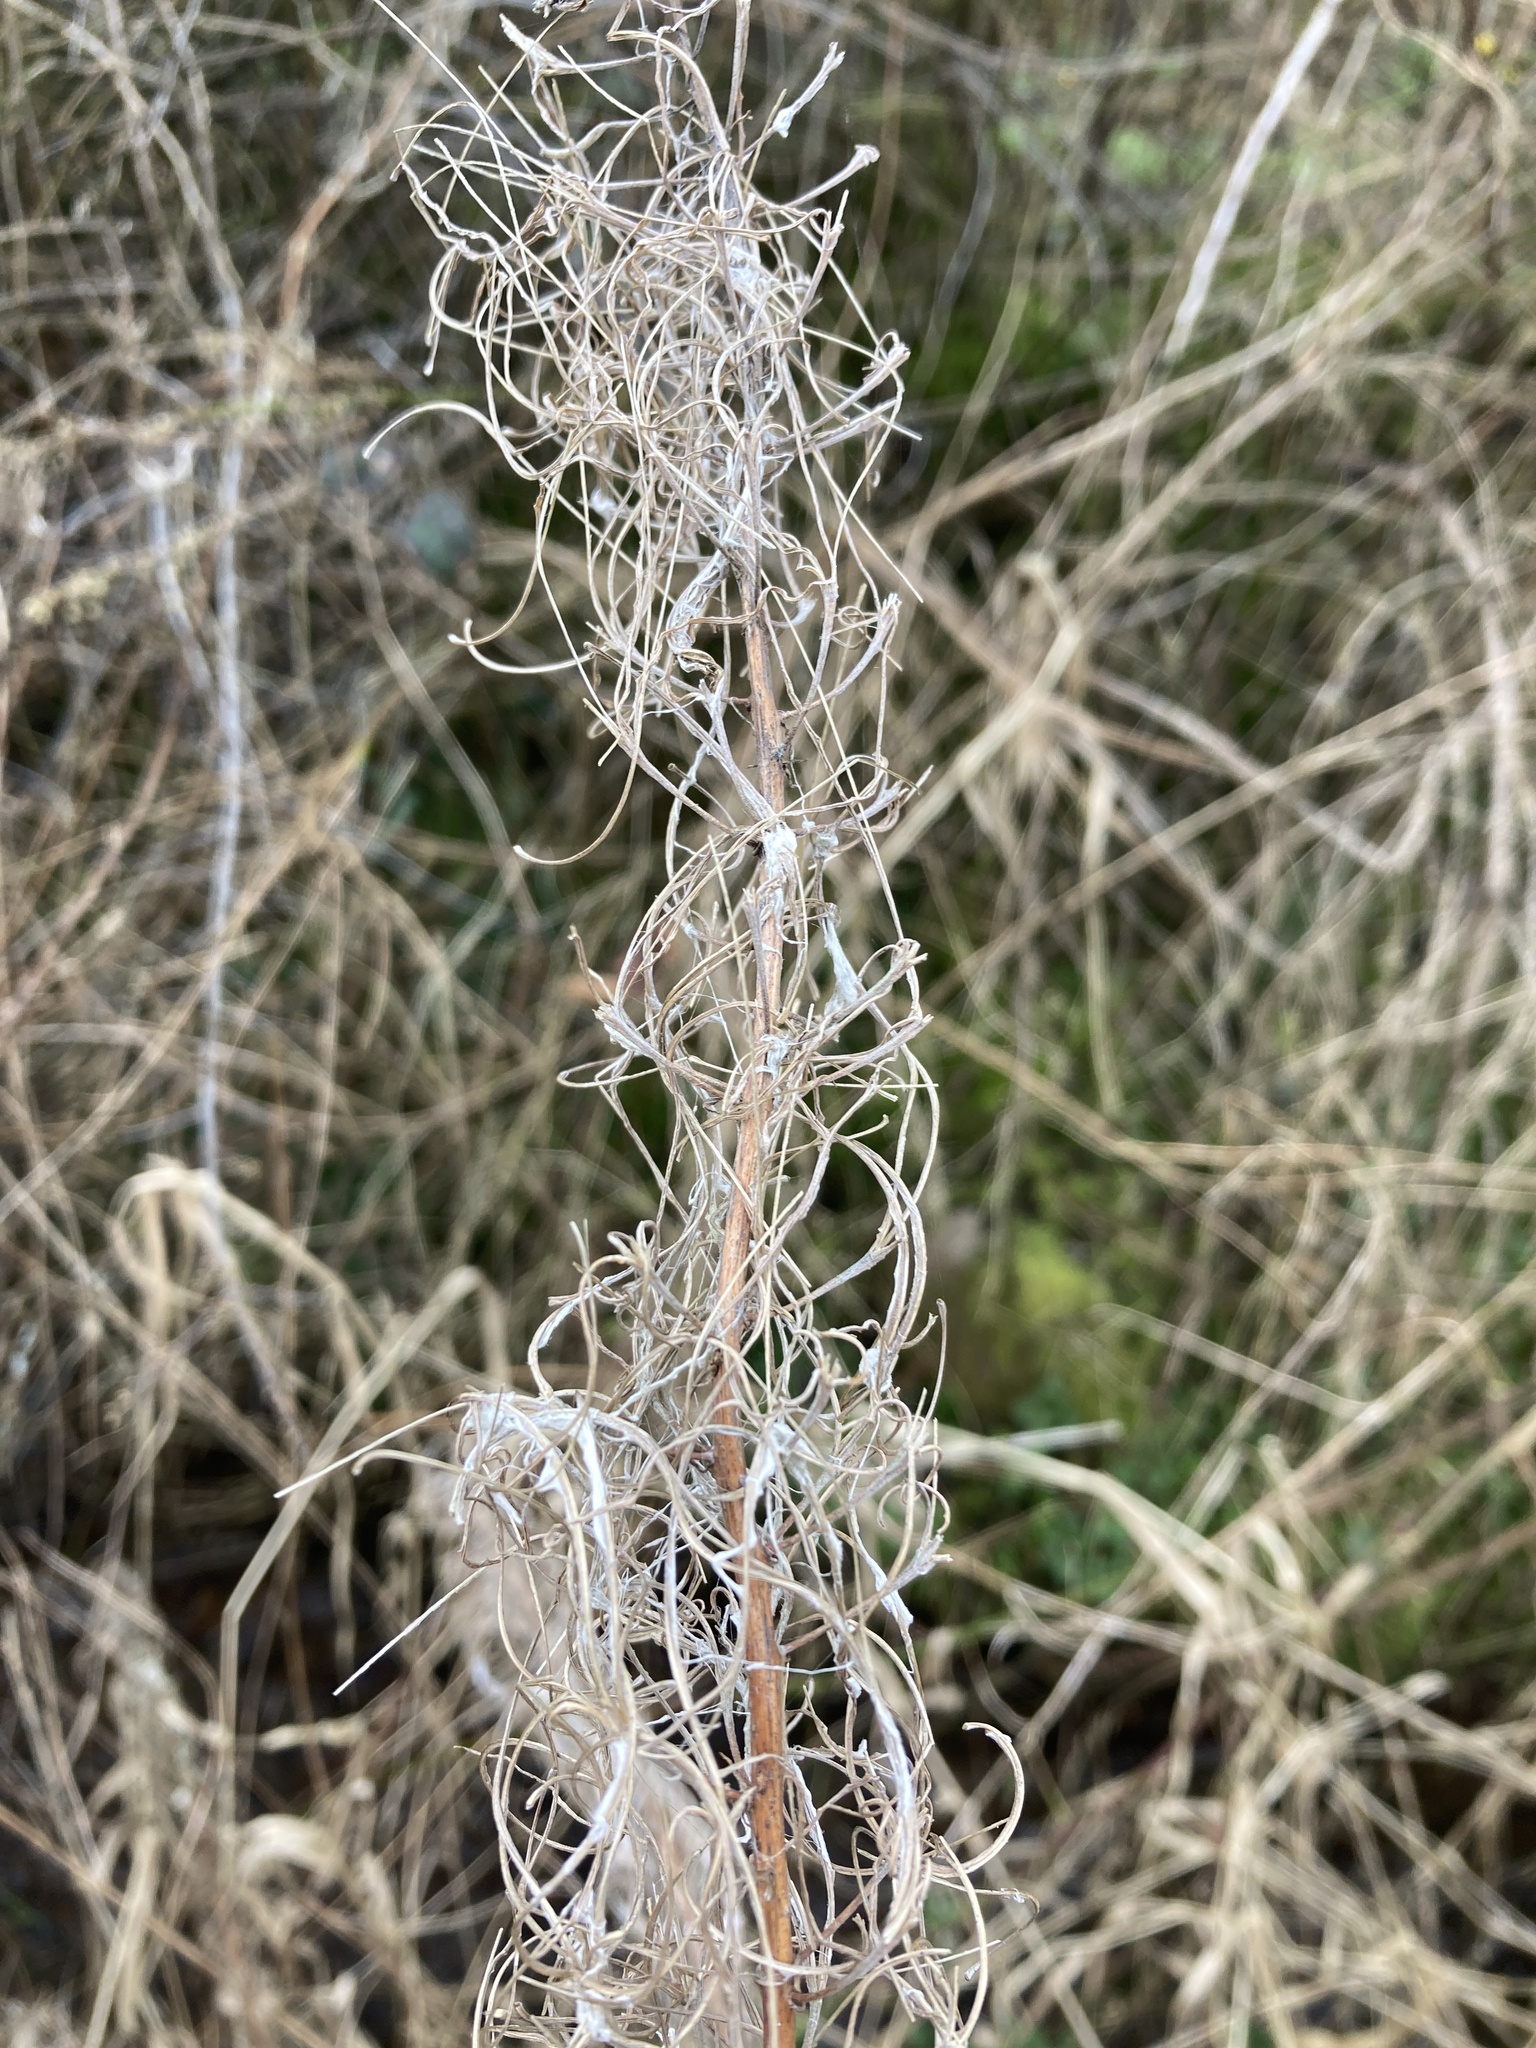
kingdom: Plantae
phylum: Tracheophyta
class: Magnoliopsida
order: Myrtales
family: Onagraceae
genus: Chamaenerion
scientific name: Chamaenerion angustifolium
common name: Fireweed
